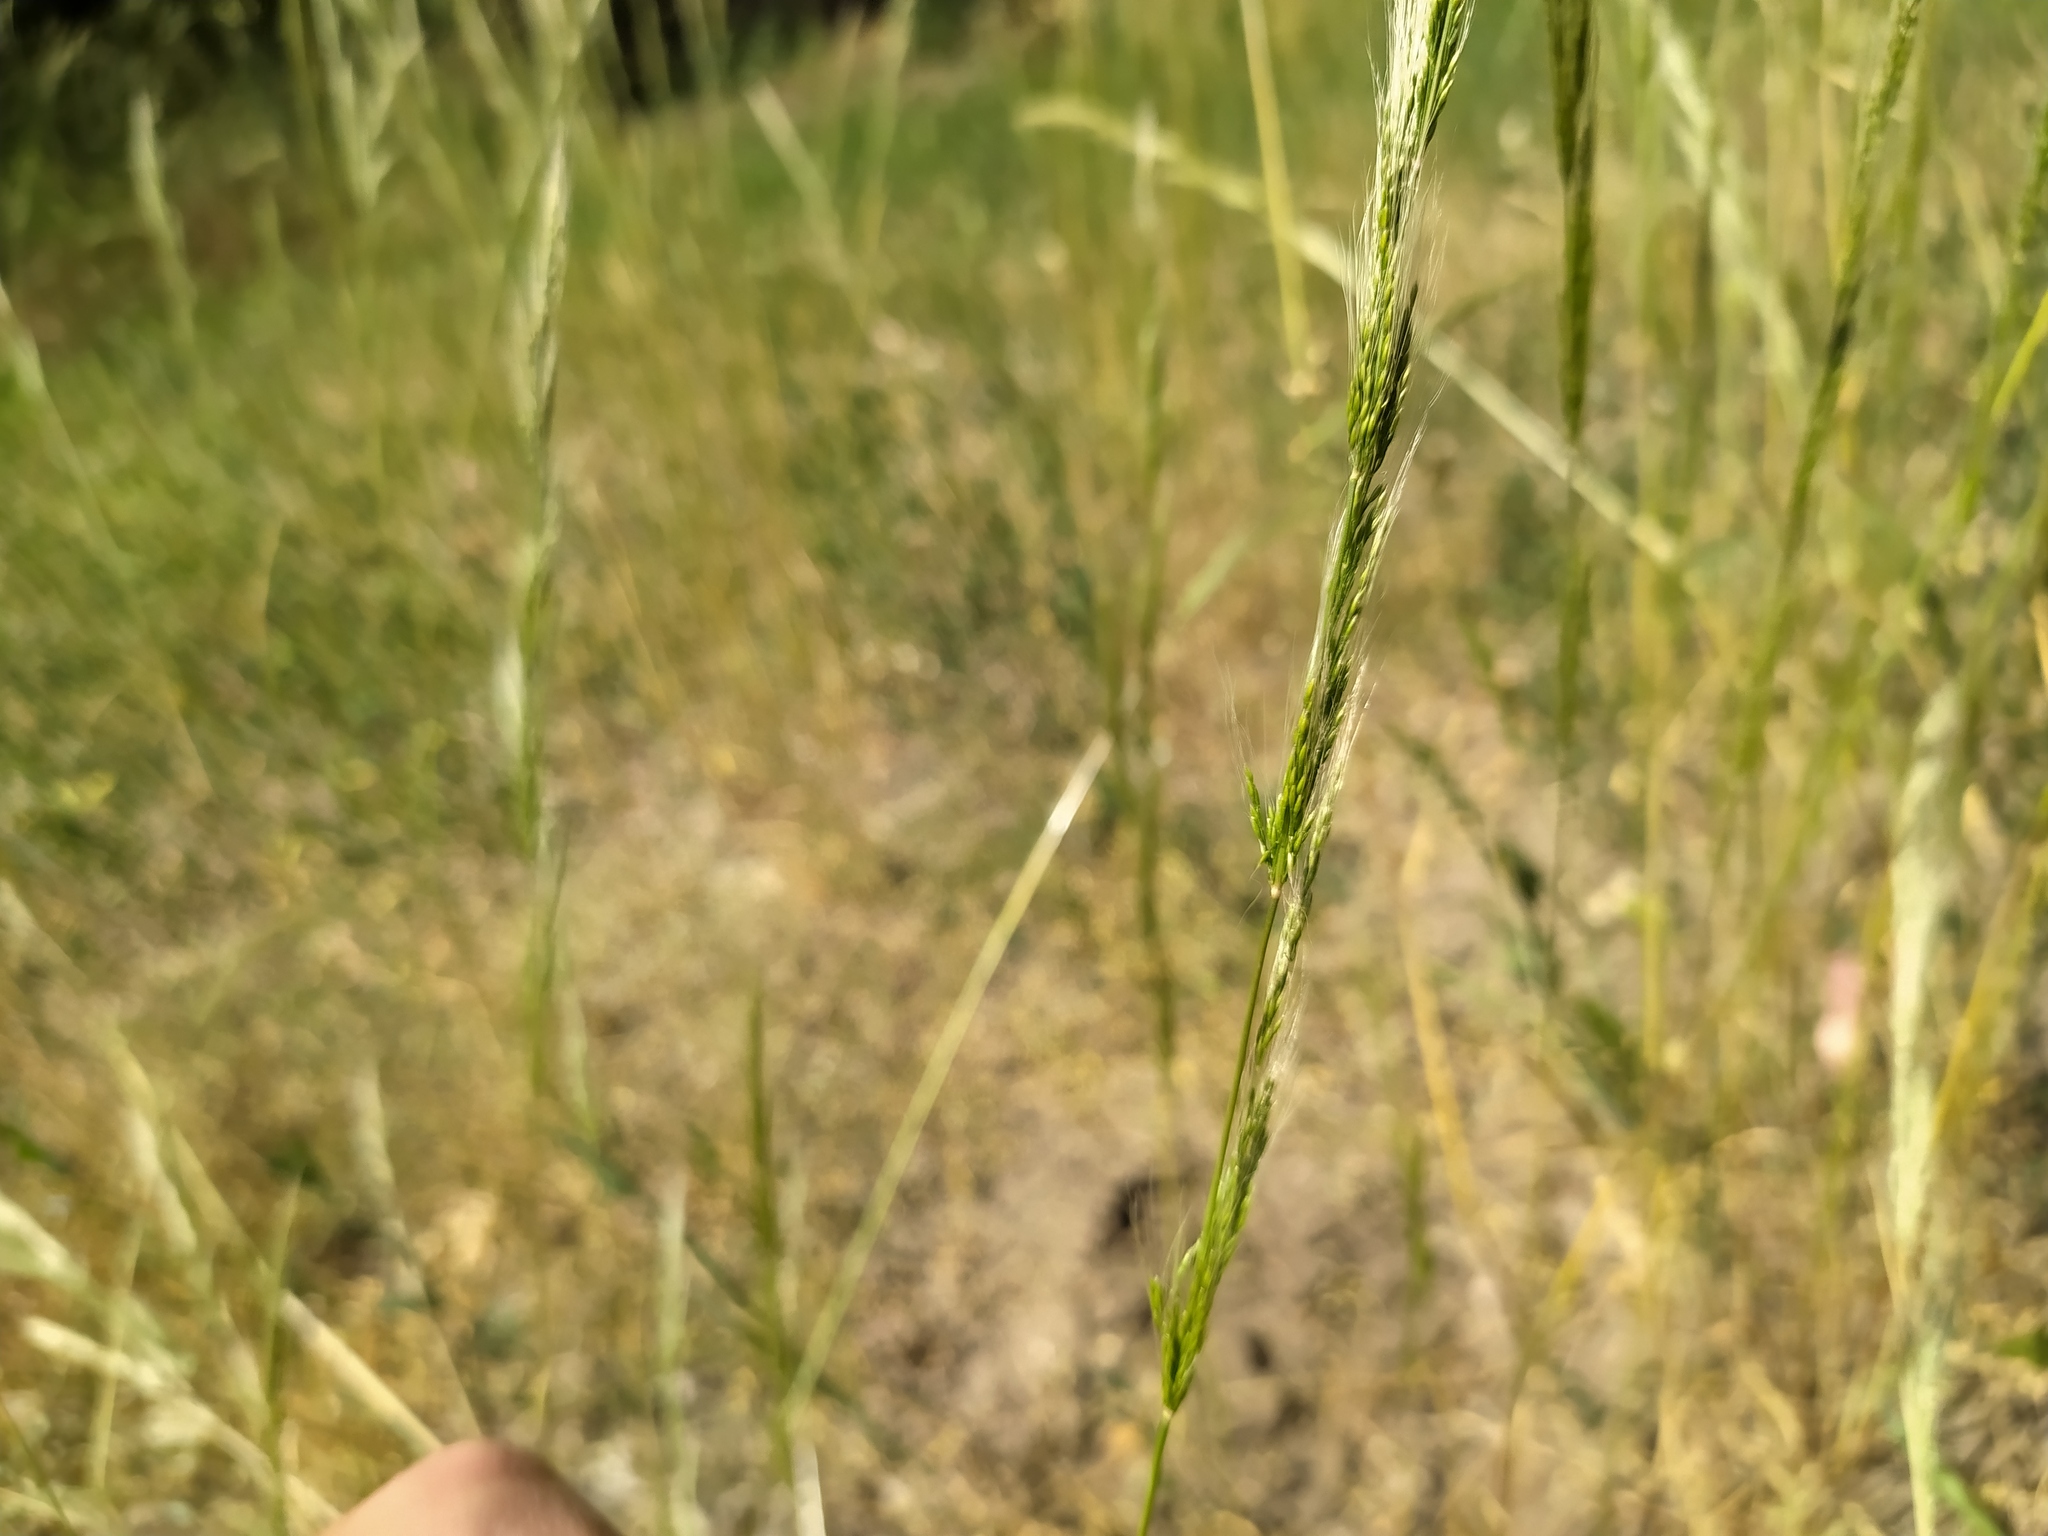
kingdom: Plantae
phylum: Tracheophyta
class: Liliopsida
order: Poales
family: Poaceae
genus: Apera
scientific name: Apera interrupta
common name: Dense silky-bent
